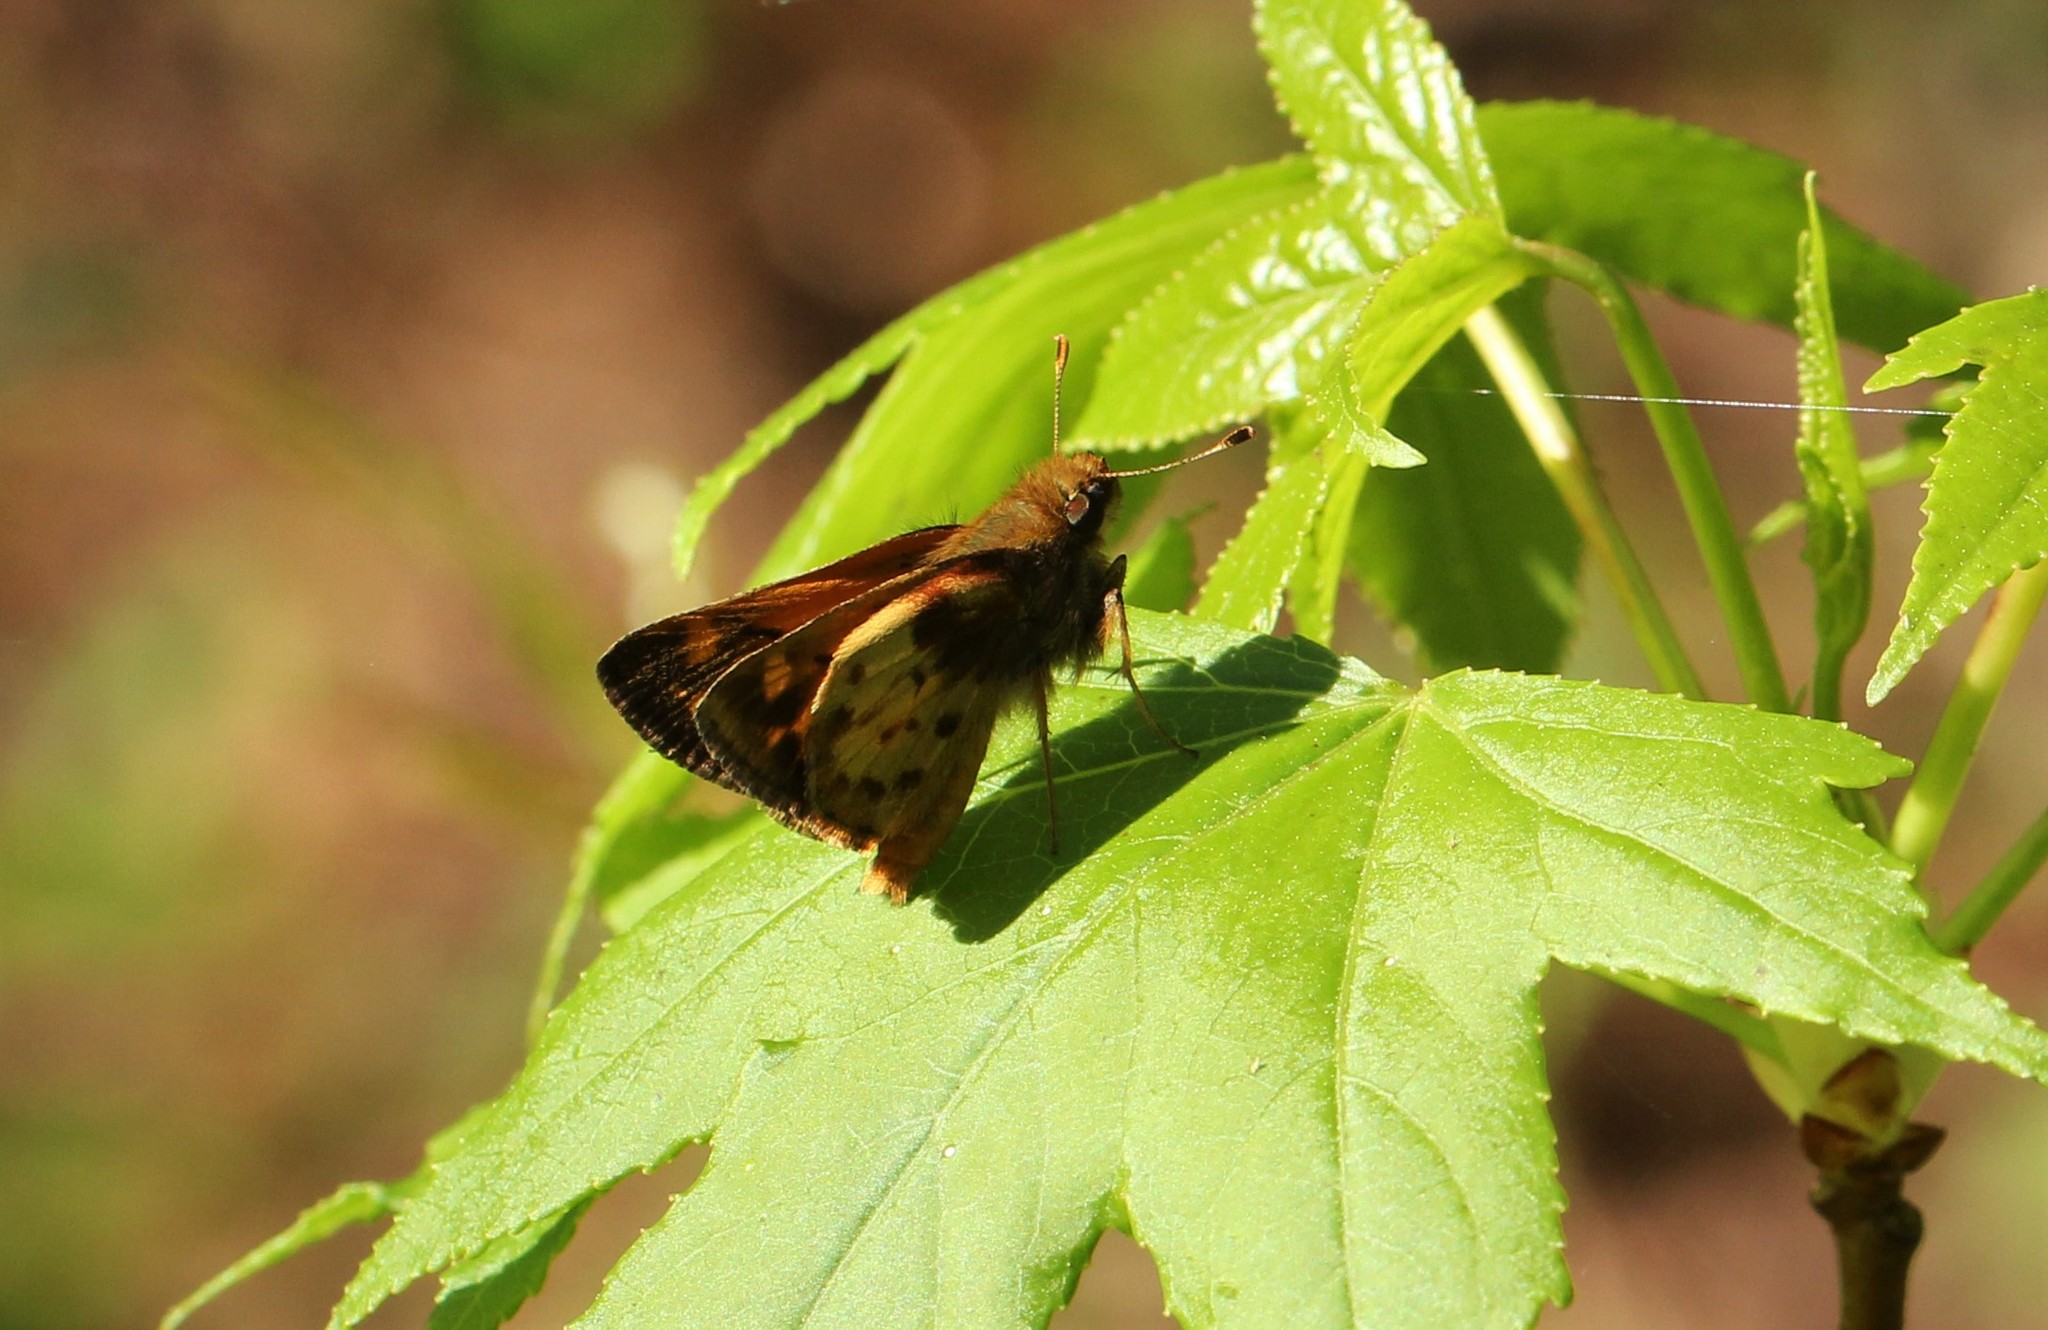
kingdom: Animalia
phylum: Arthropoda
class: Insecta
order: Lepidoptera
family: Hesperiidae
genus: Lon
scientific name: Lon zabulon
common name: Zabulon skipper
